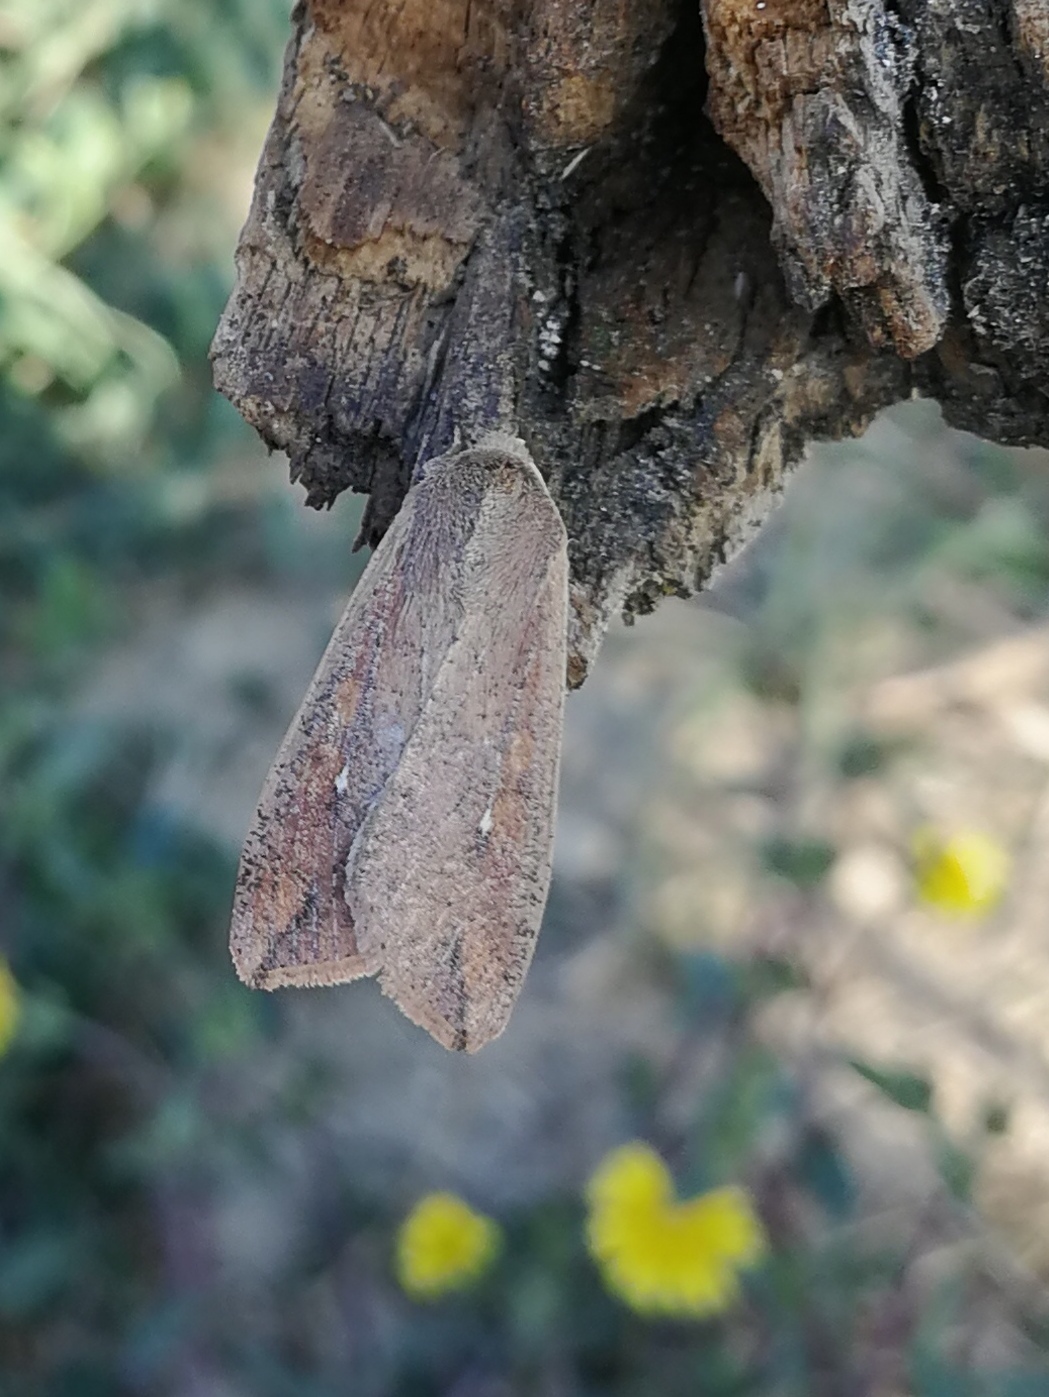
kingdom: Animalia
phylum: Arthropoda
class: Insecta
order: Lepidoptera
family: Noctuidae
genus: Mythimna
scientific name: Mythimna unipuncta
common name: White-speck
